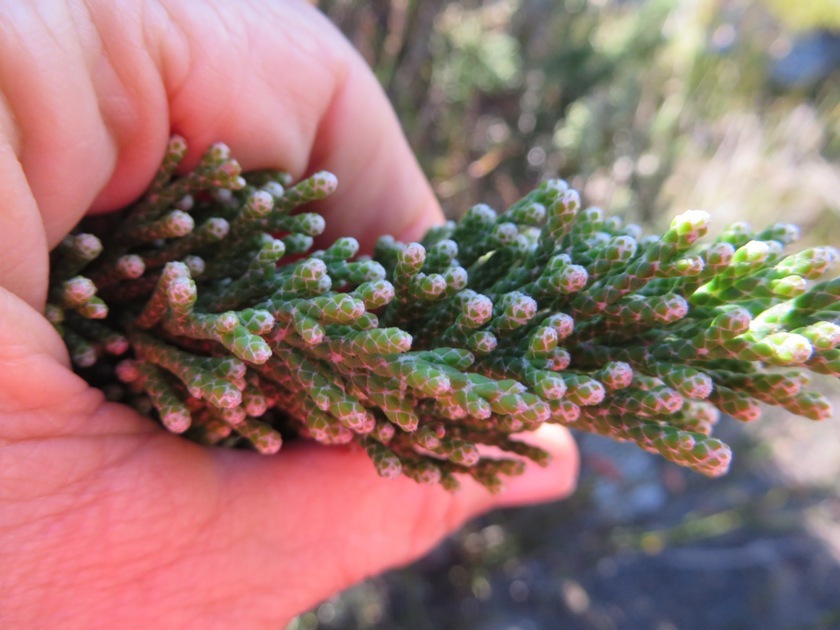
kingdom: Plantae
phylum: Tracheophyta
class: Magnoliopsida
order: Bruniales
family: Bruniaceae
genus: Brunia
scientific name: Brunia microphylla
